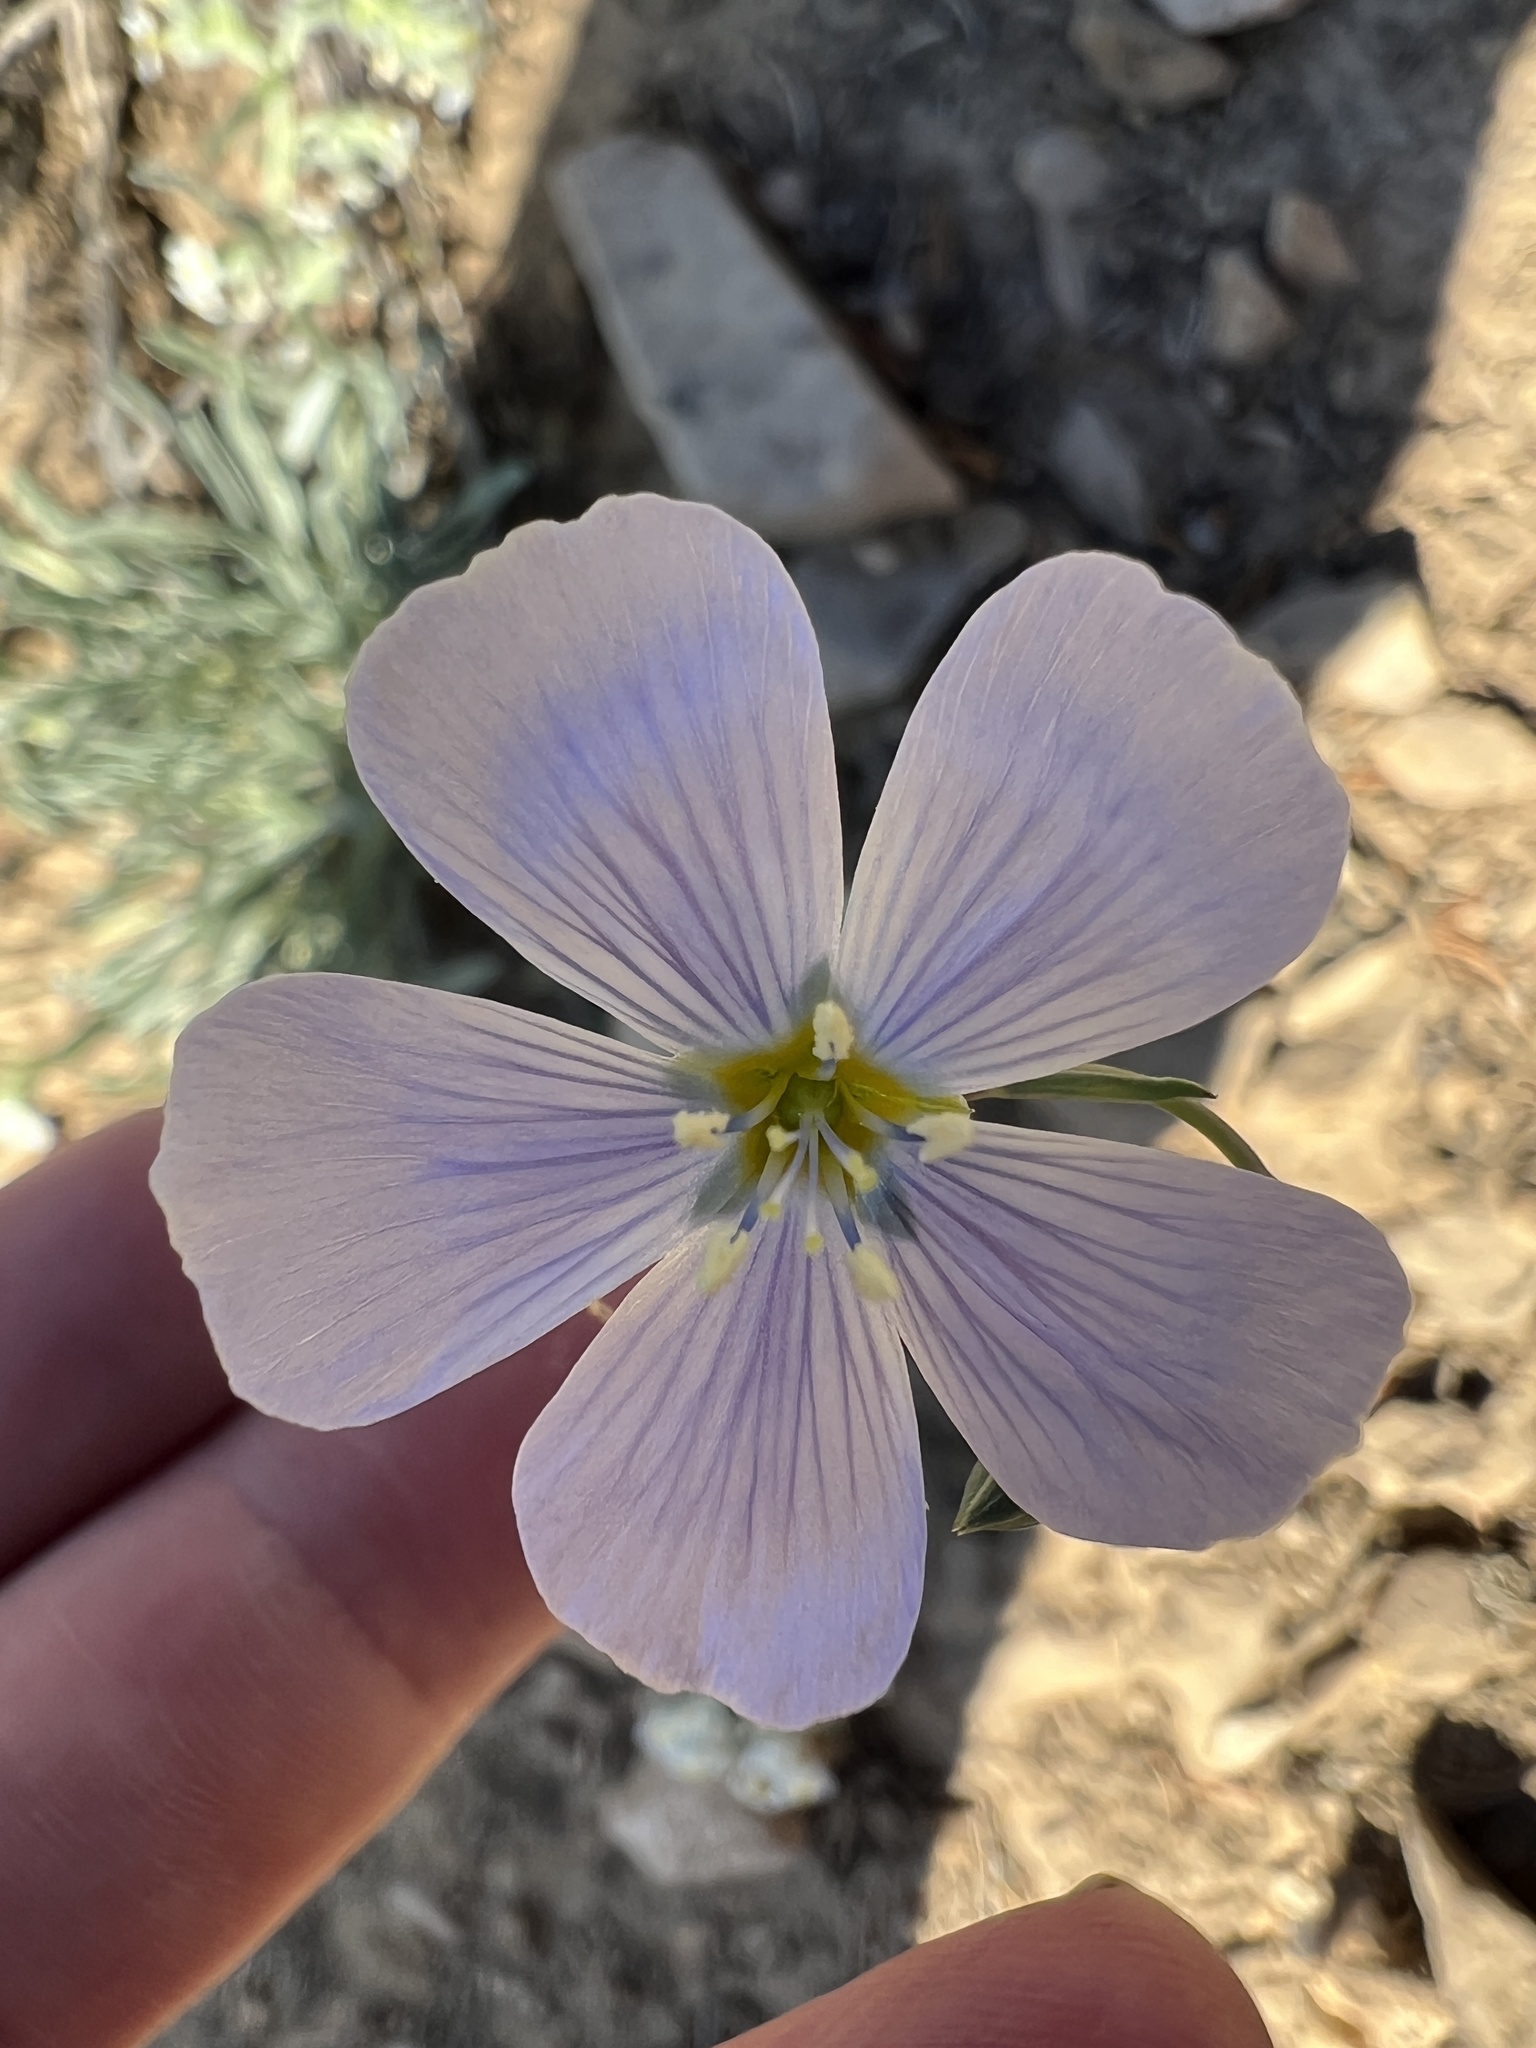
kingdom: Plantae
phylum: Tracheophyta
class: Magnoliopsida
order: Malpighiales
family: Linaceae
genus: Linum
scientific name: Linum lewisii
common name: Prairie flax
